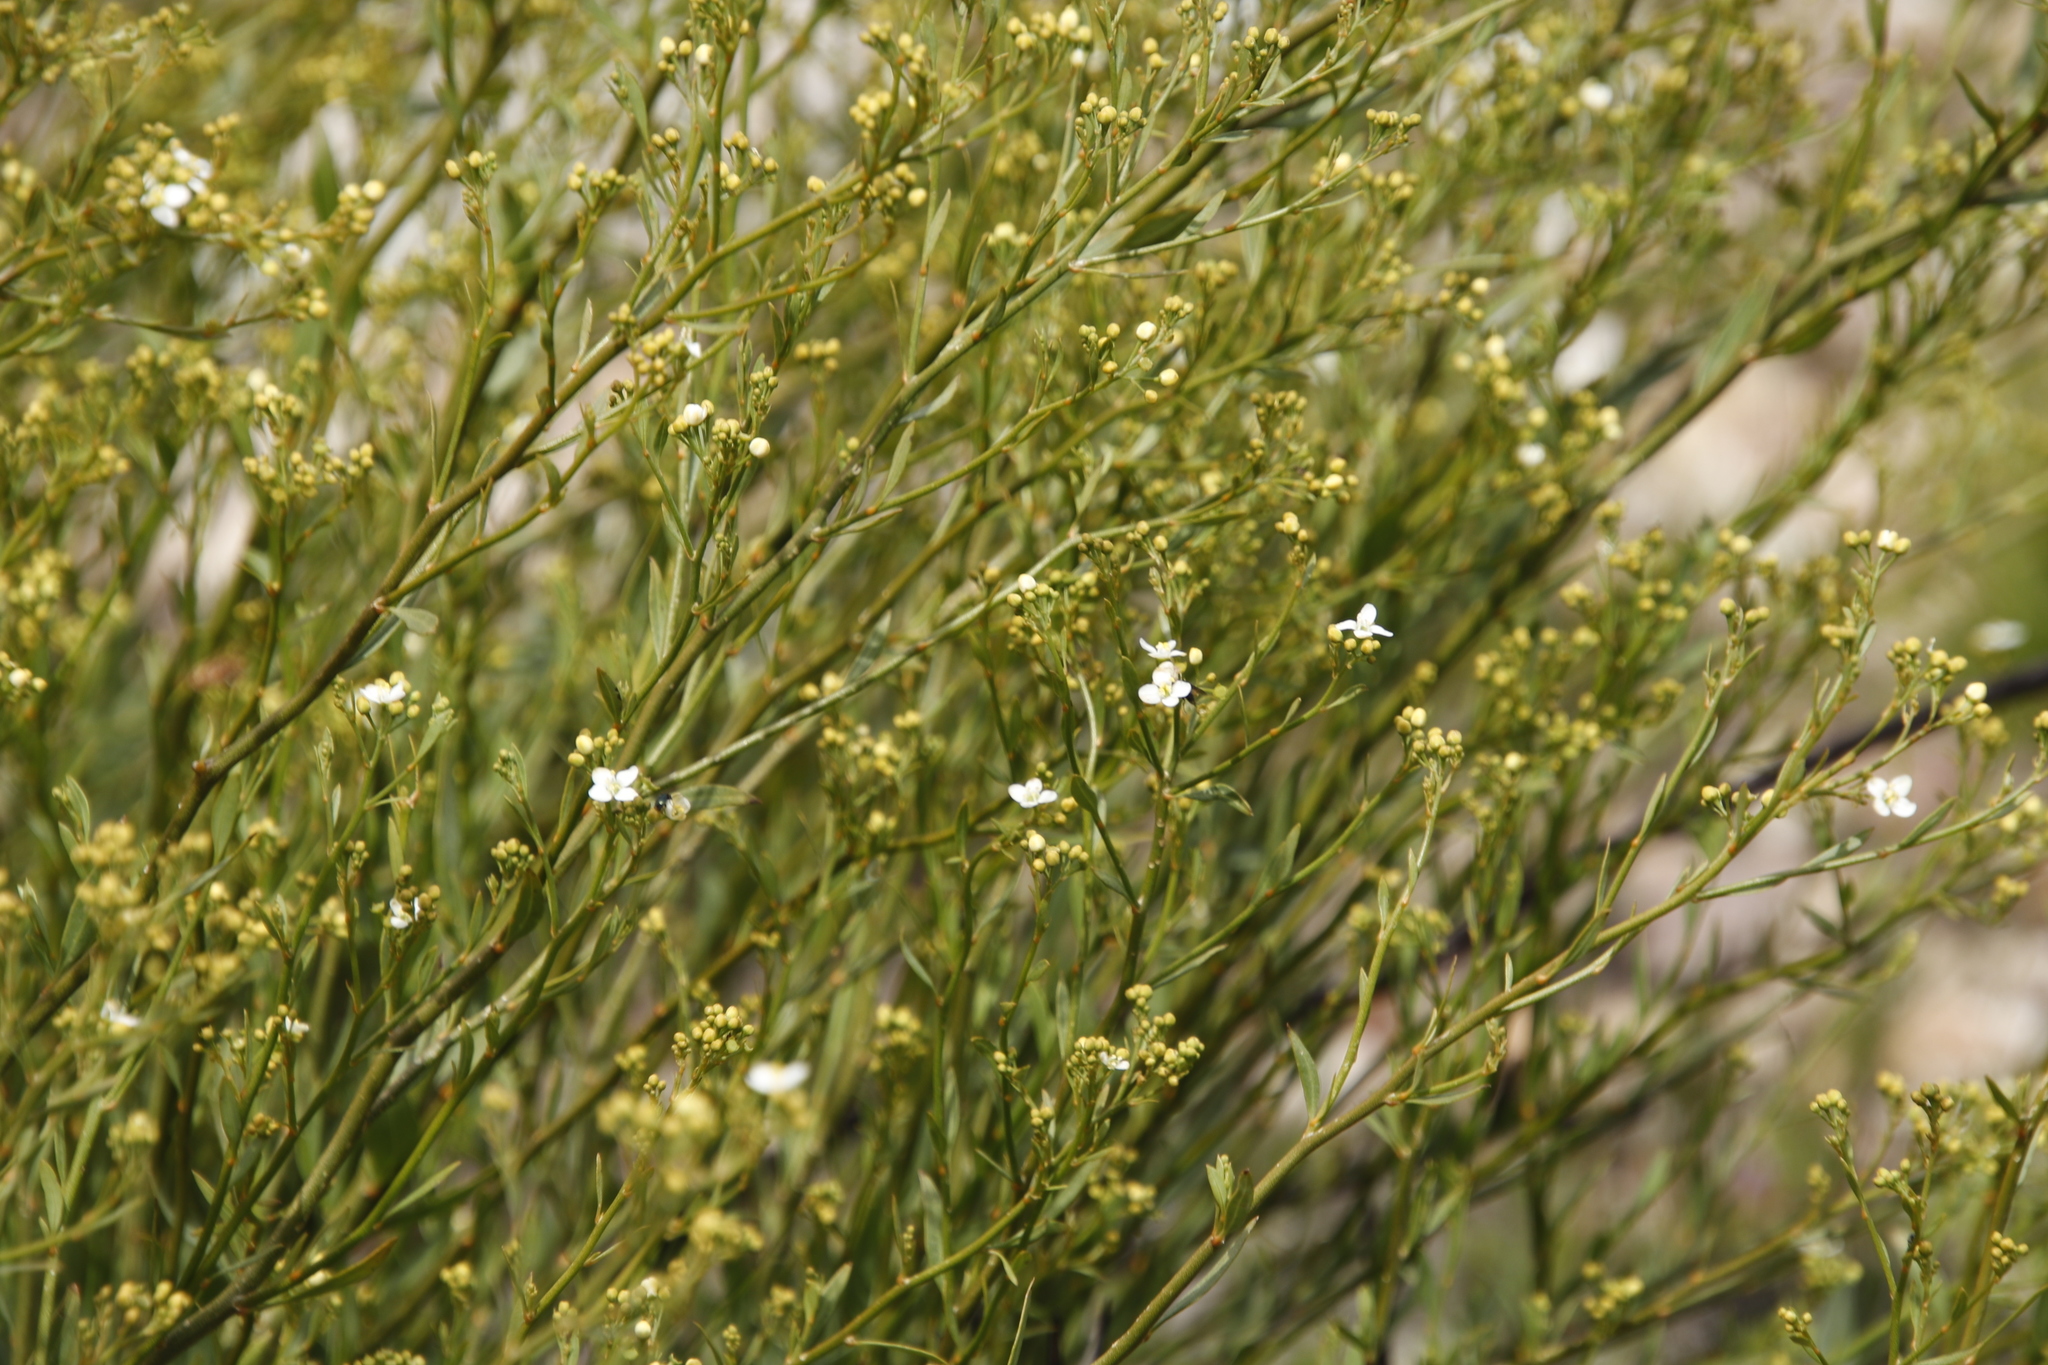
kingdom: Plantae
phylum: Tracheophyta
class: Magnoliopsida
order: Solanales
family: Montiniaceae
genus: Montinia
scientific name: Montinia caryophyllacea
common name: Wild clove-bush
